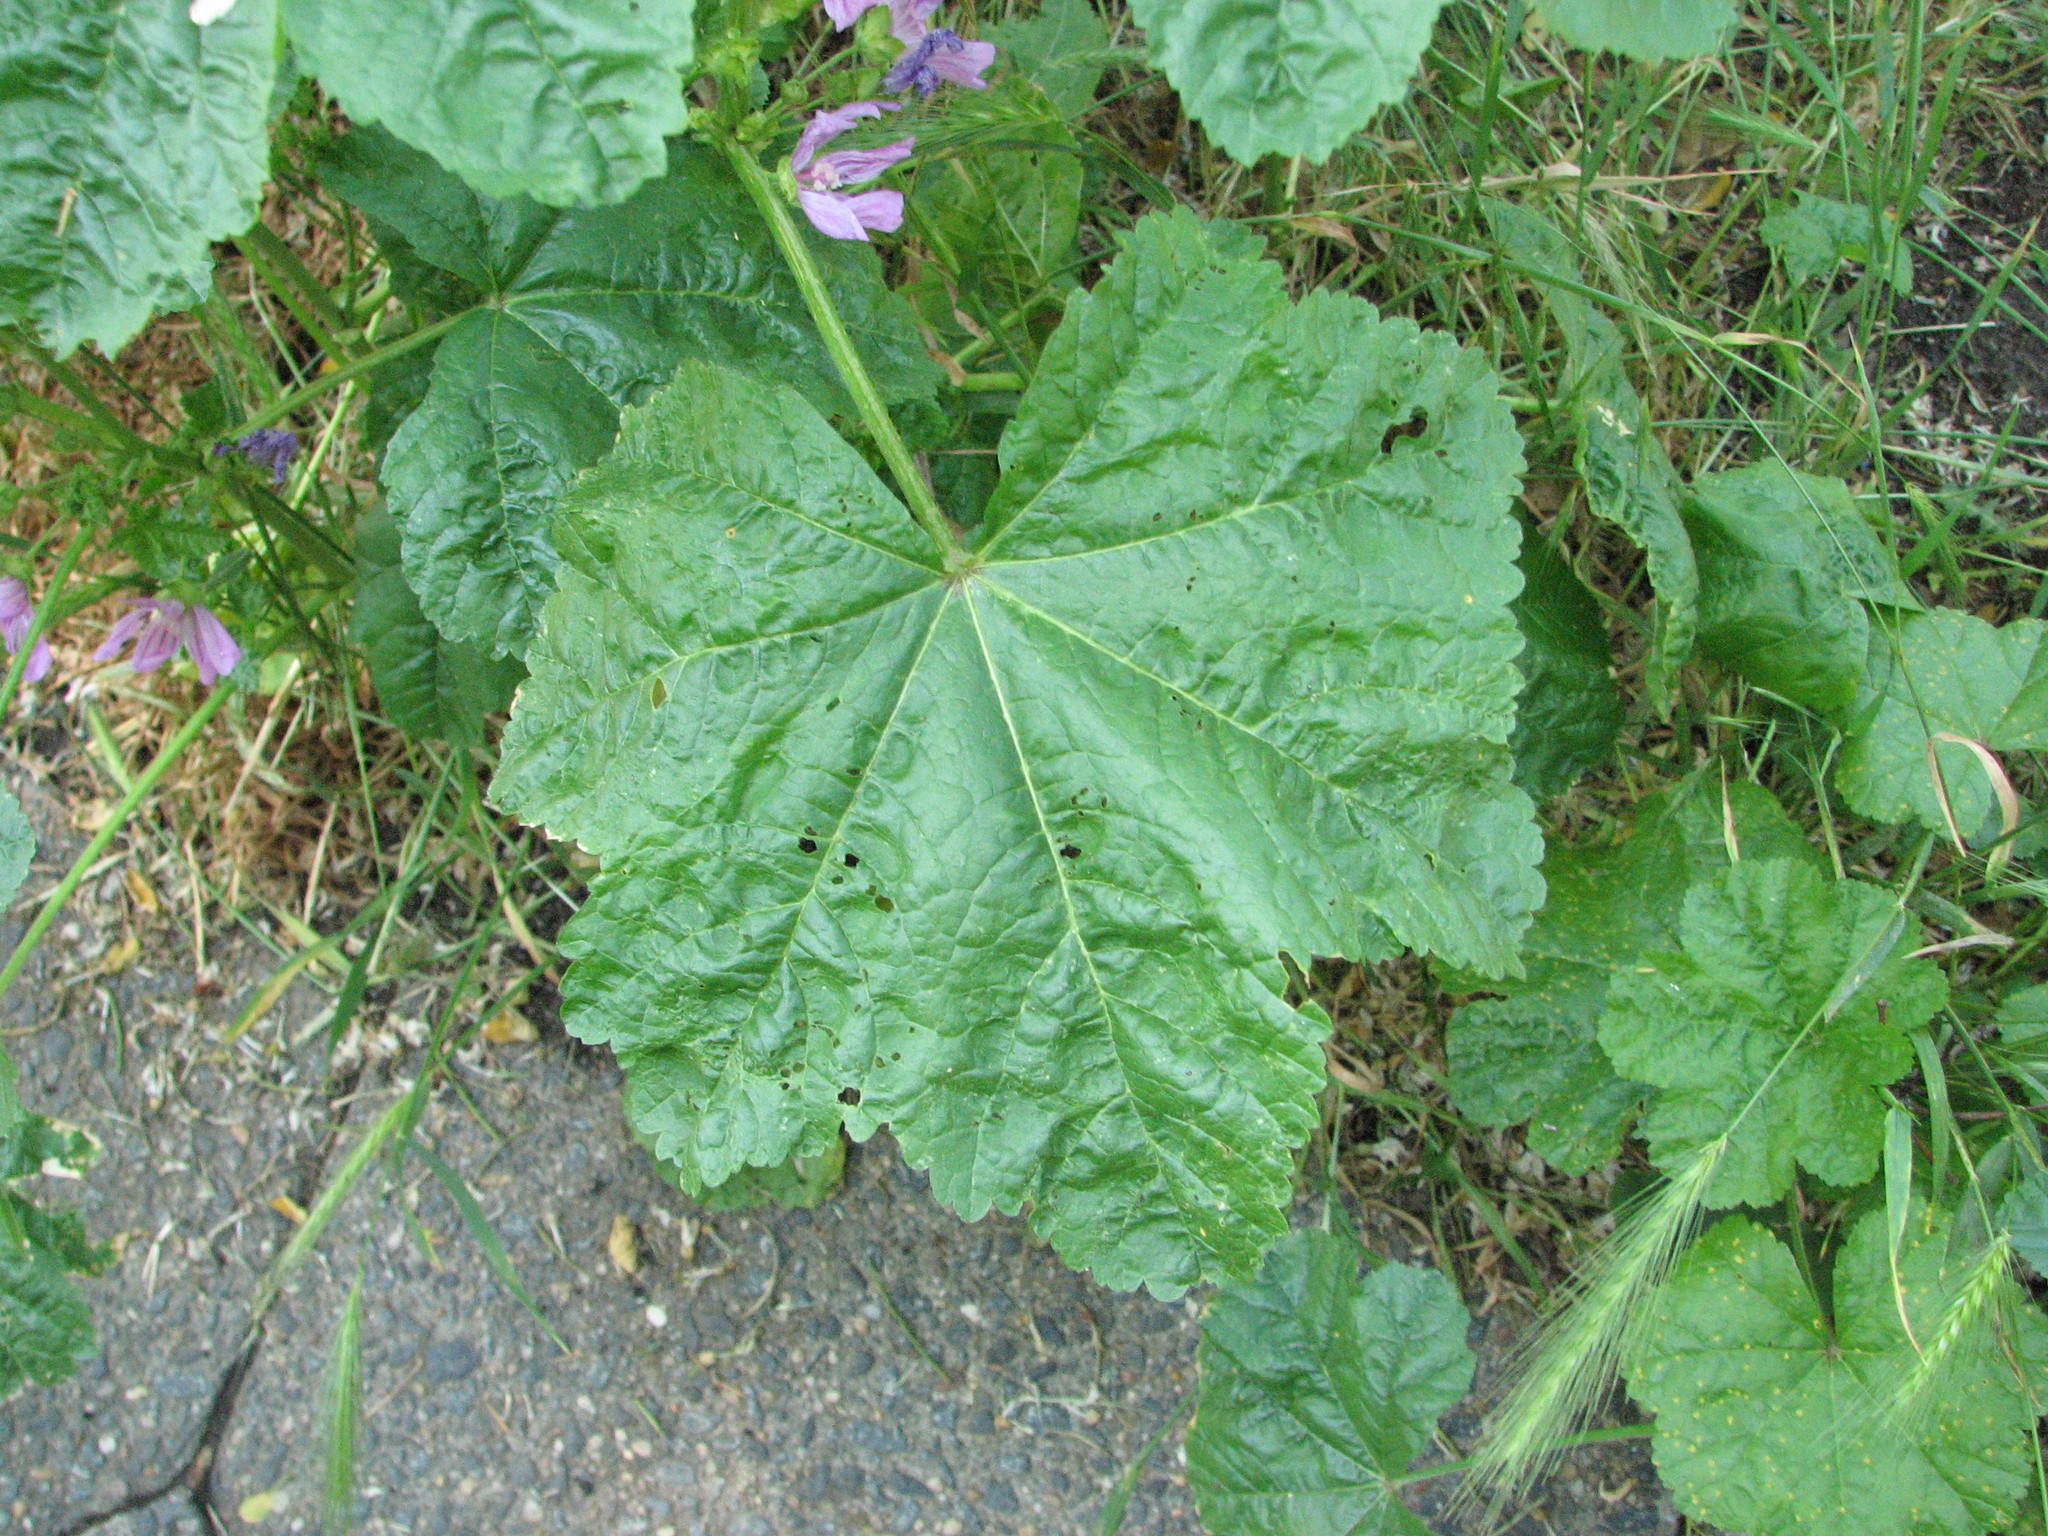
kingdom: Plantae
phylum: Tracheophyta
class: Magnoliopsida
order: Malvales
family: Malvaceae
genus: Malva
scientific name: Malva sylvestris
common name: Common mallow
